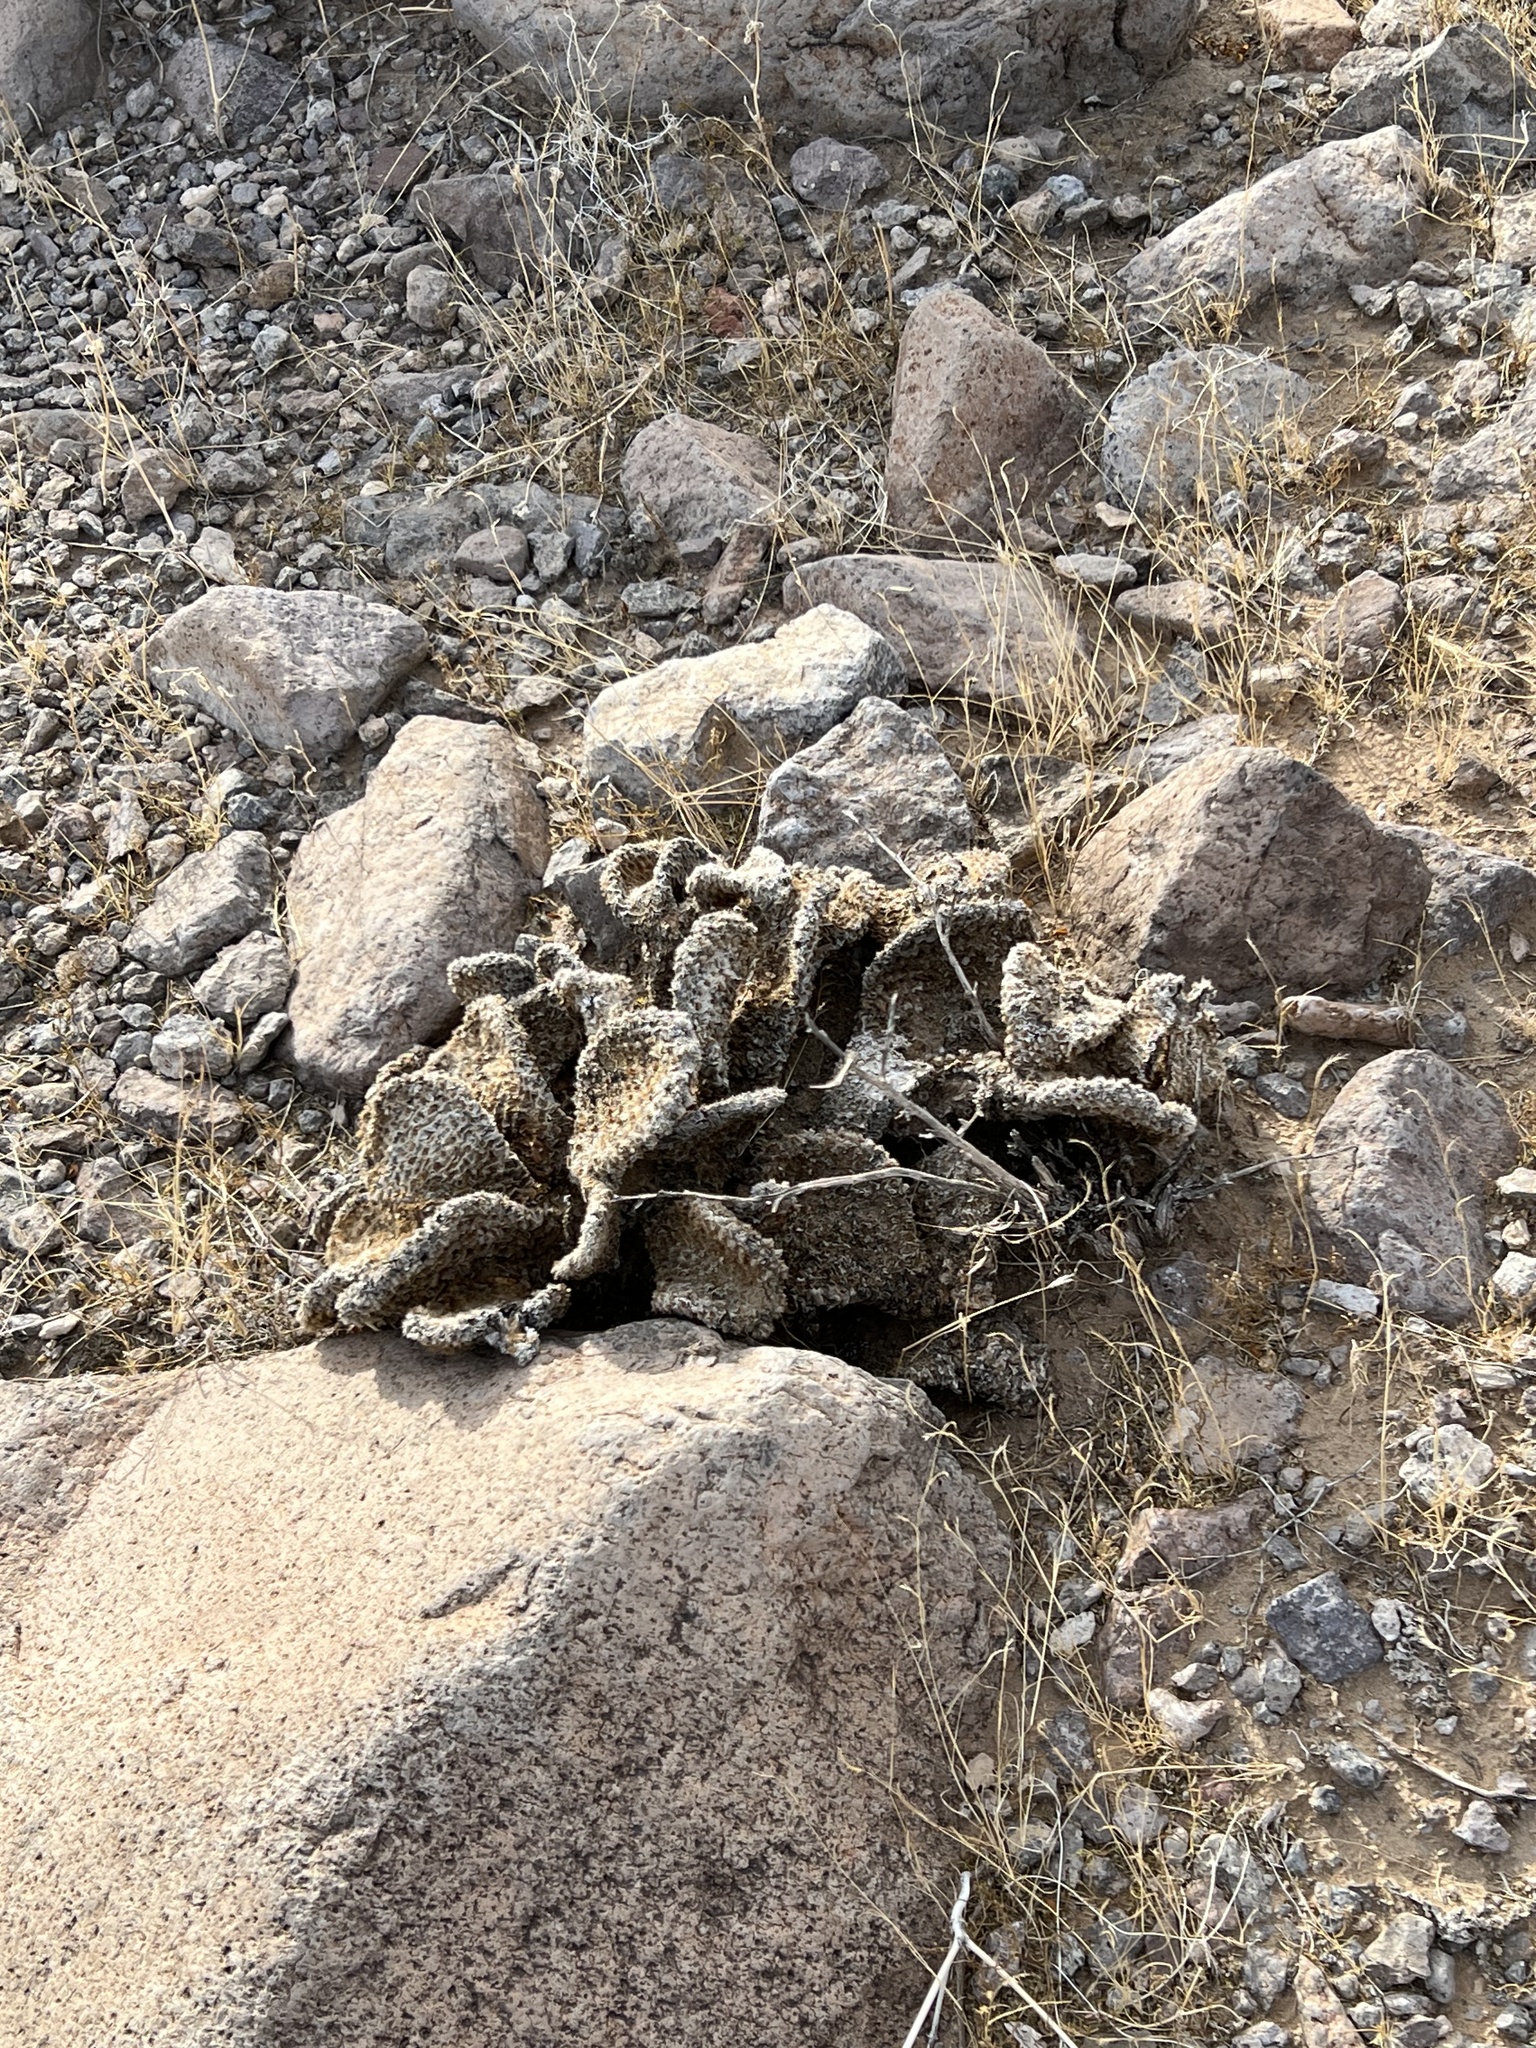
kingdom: Plantae
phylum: Tracheophyta
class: Magnoliopsida
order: Caryophyllales
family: Cactaceae
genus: Opuntia
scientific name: Opuntia basilaris
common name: Beavertail prickly-pear
